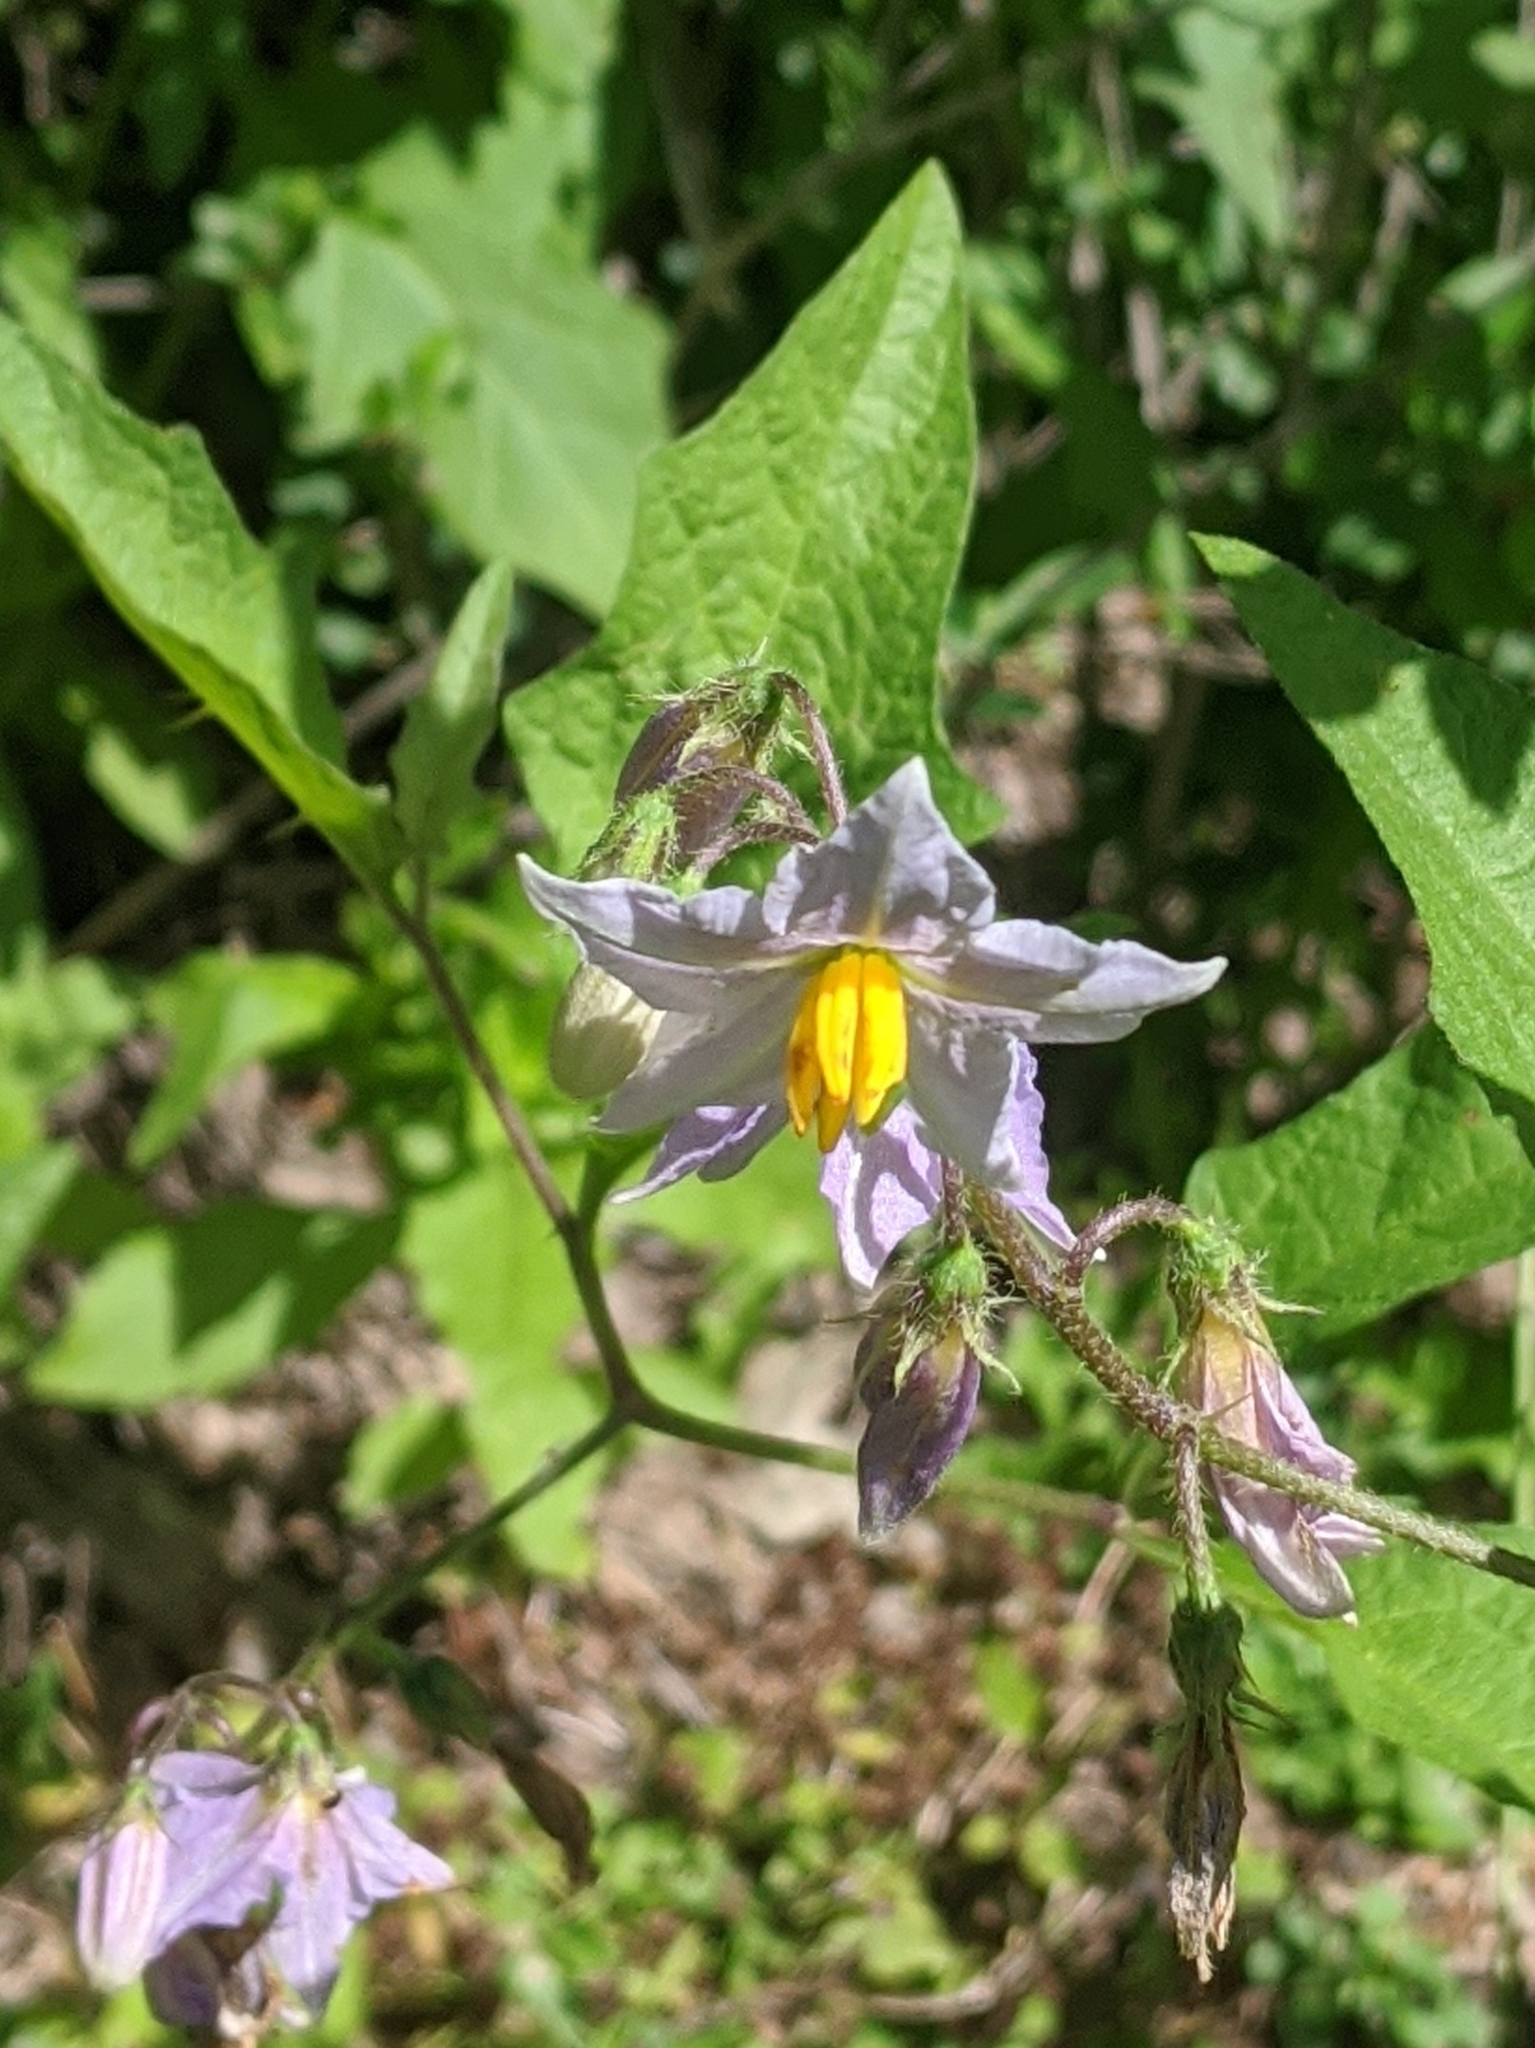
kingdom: Plantae
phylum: Tracheophyta
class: Magnoliopsida
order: Solanales
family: Solanaceae
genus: Solanum
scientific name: Solanum carolinense
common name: Horse-nettle
